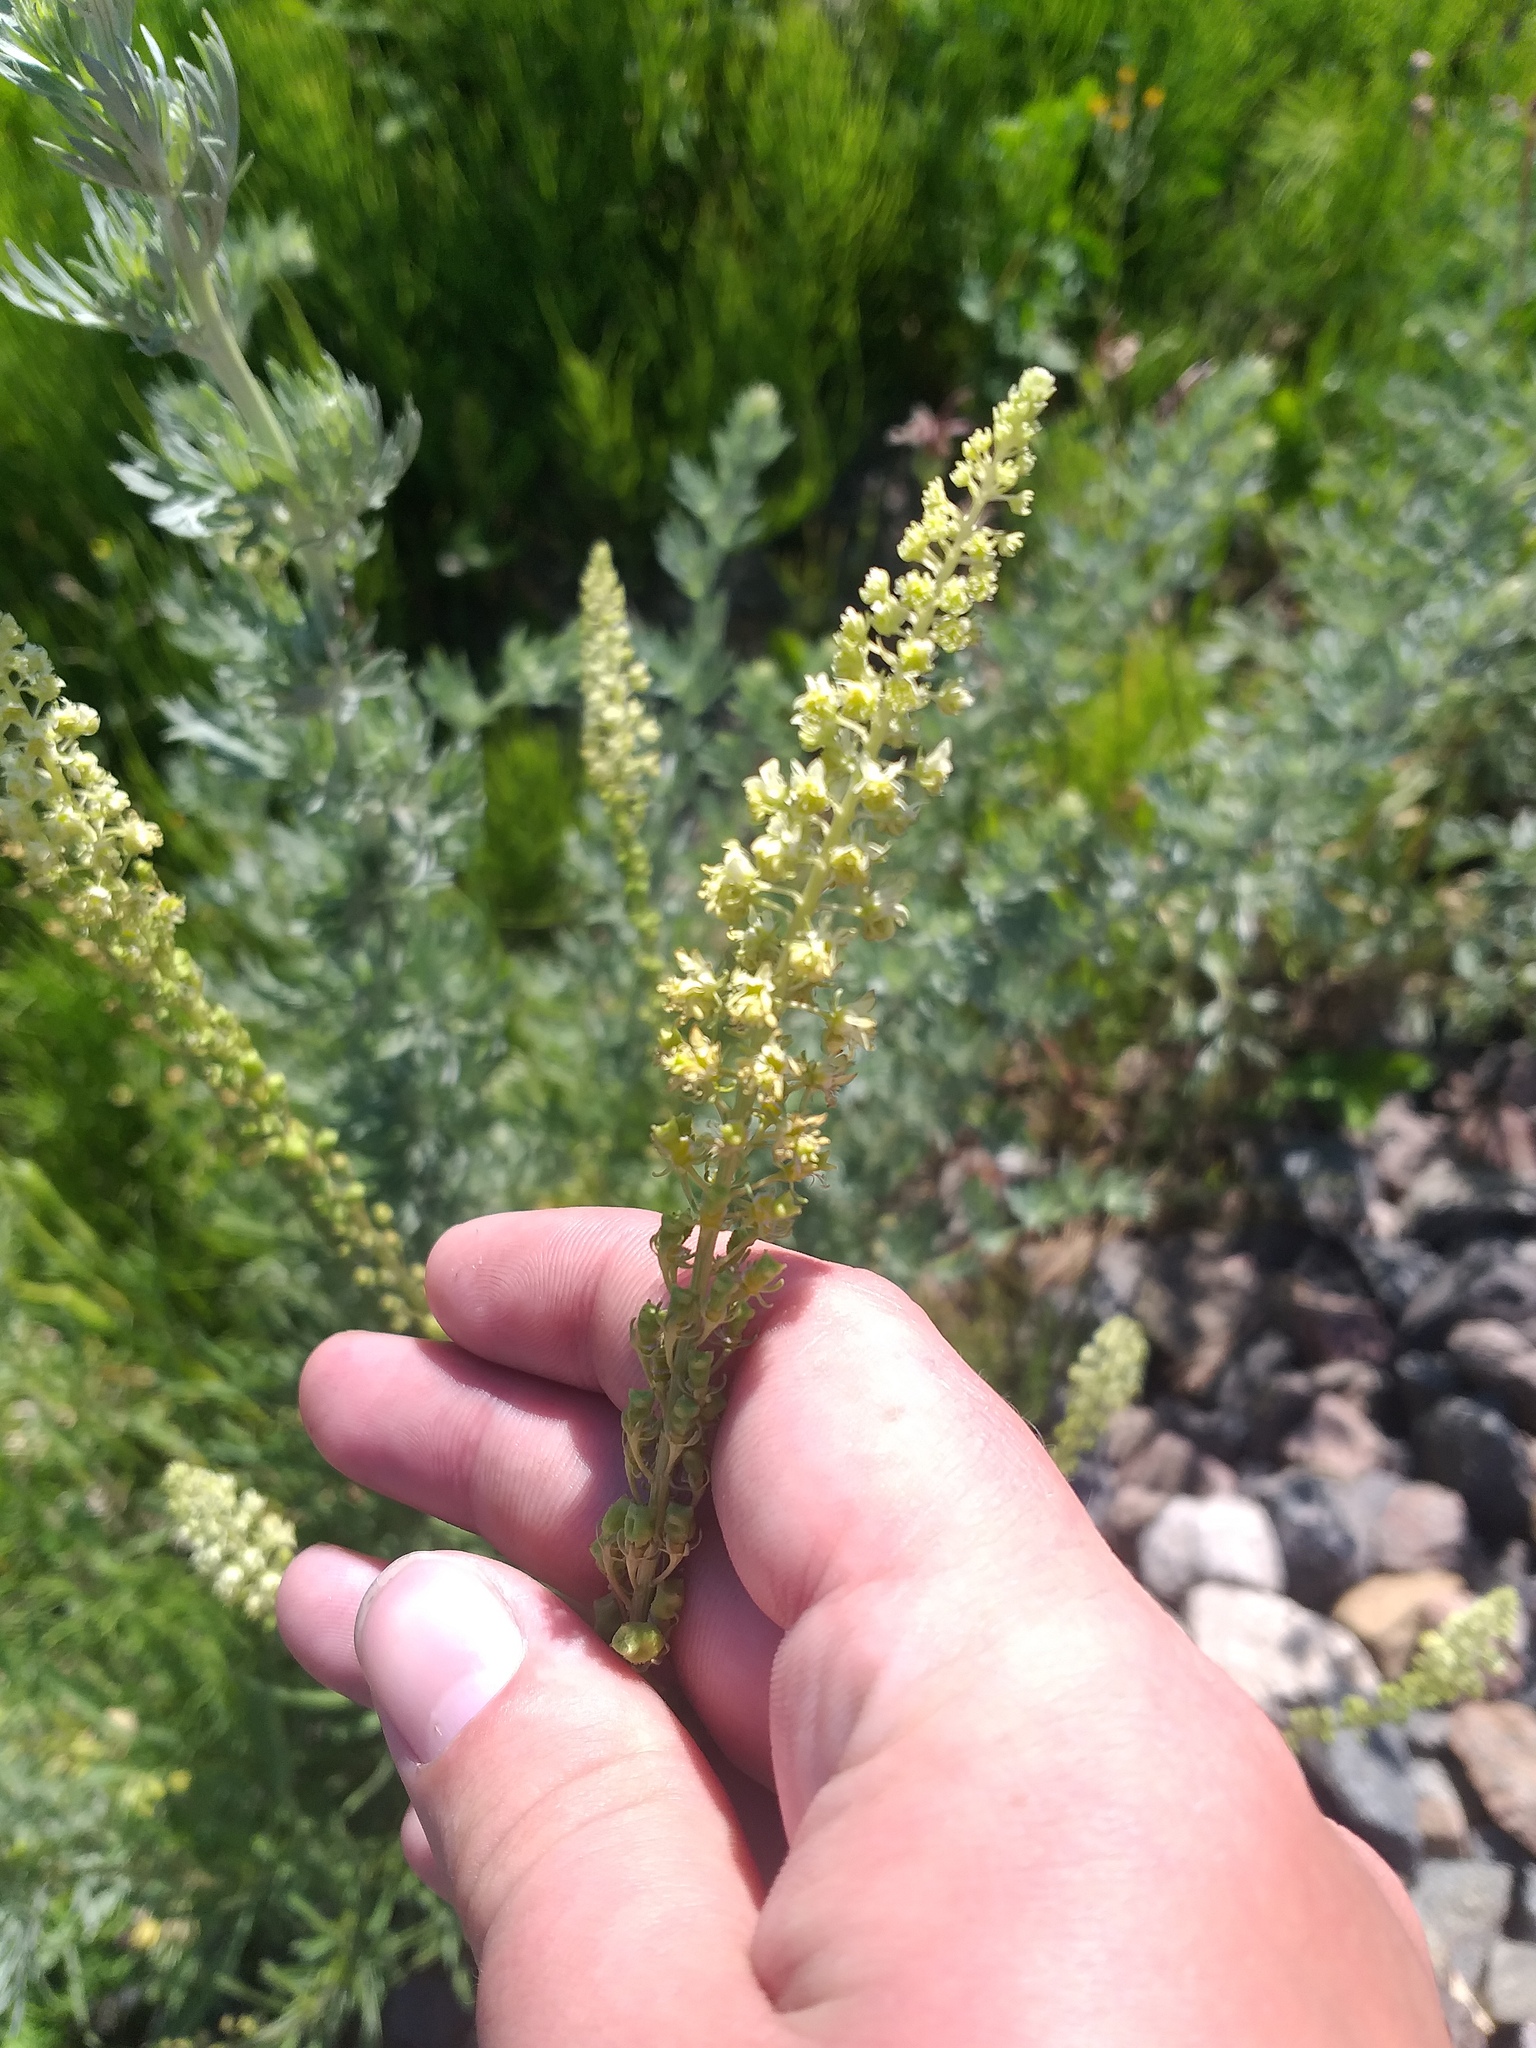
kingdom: Plantae
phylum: Tracheophyta
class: Magnoliopsida
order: Brassicales
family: Resedaceae
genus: Reseda
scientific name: Reseda lutea
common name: Wild mignonette
